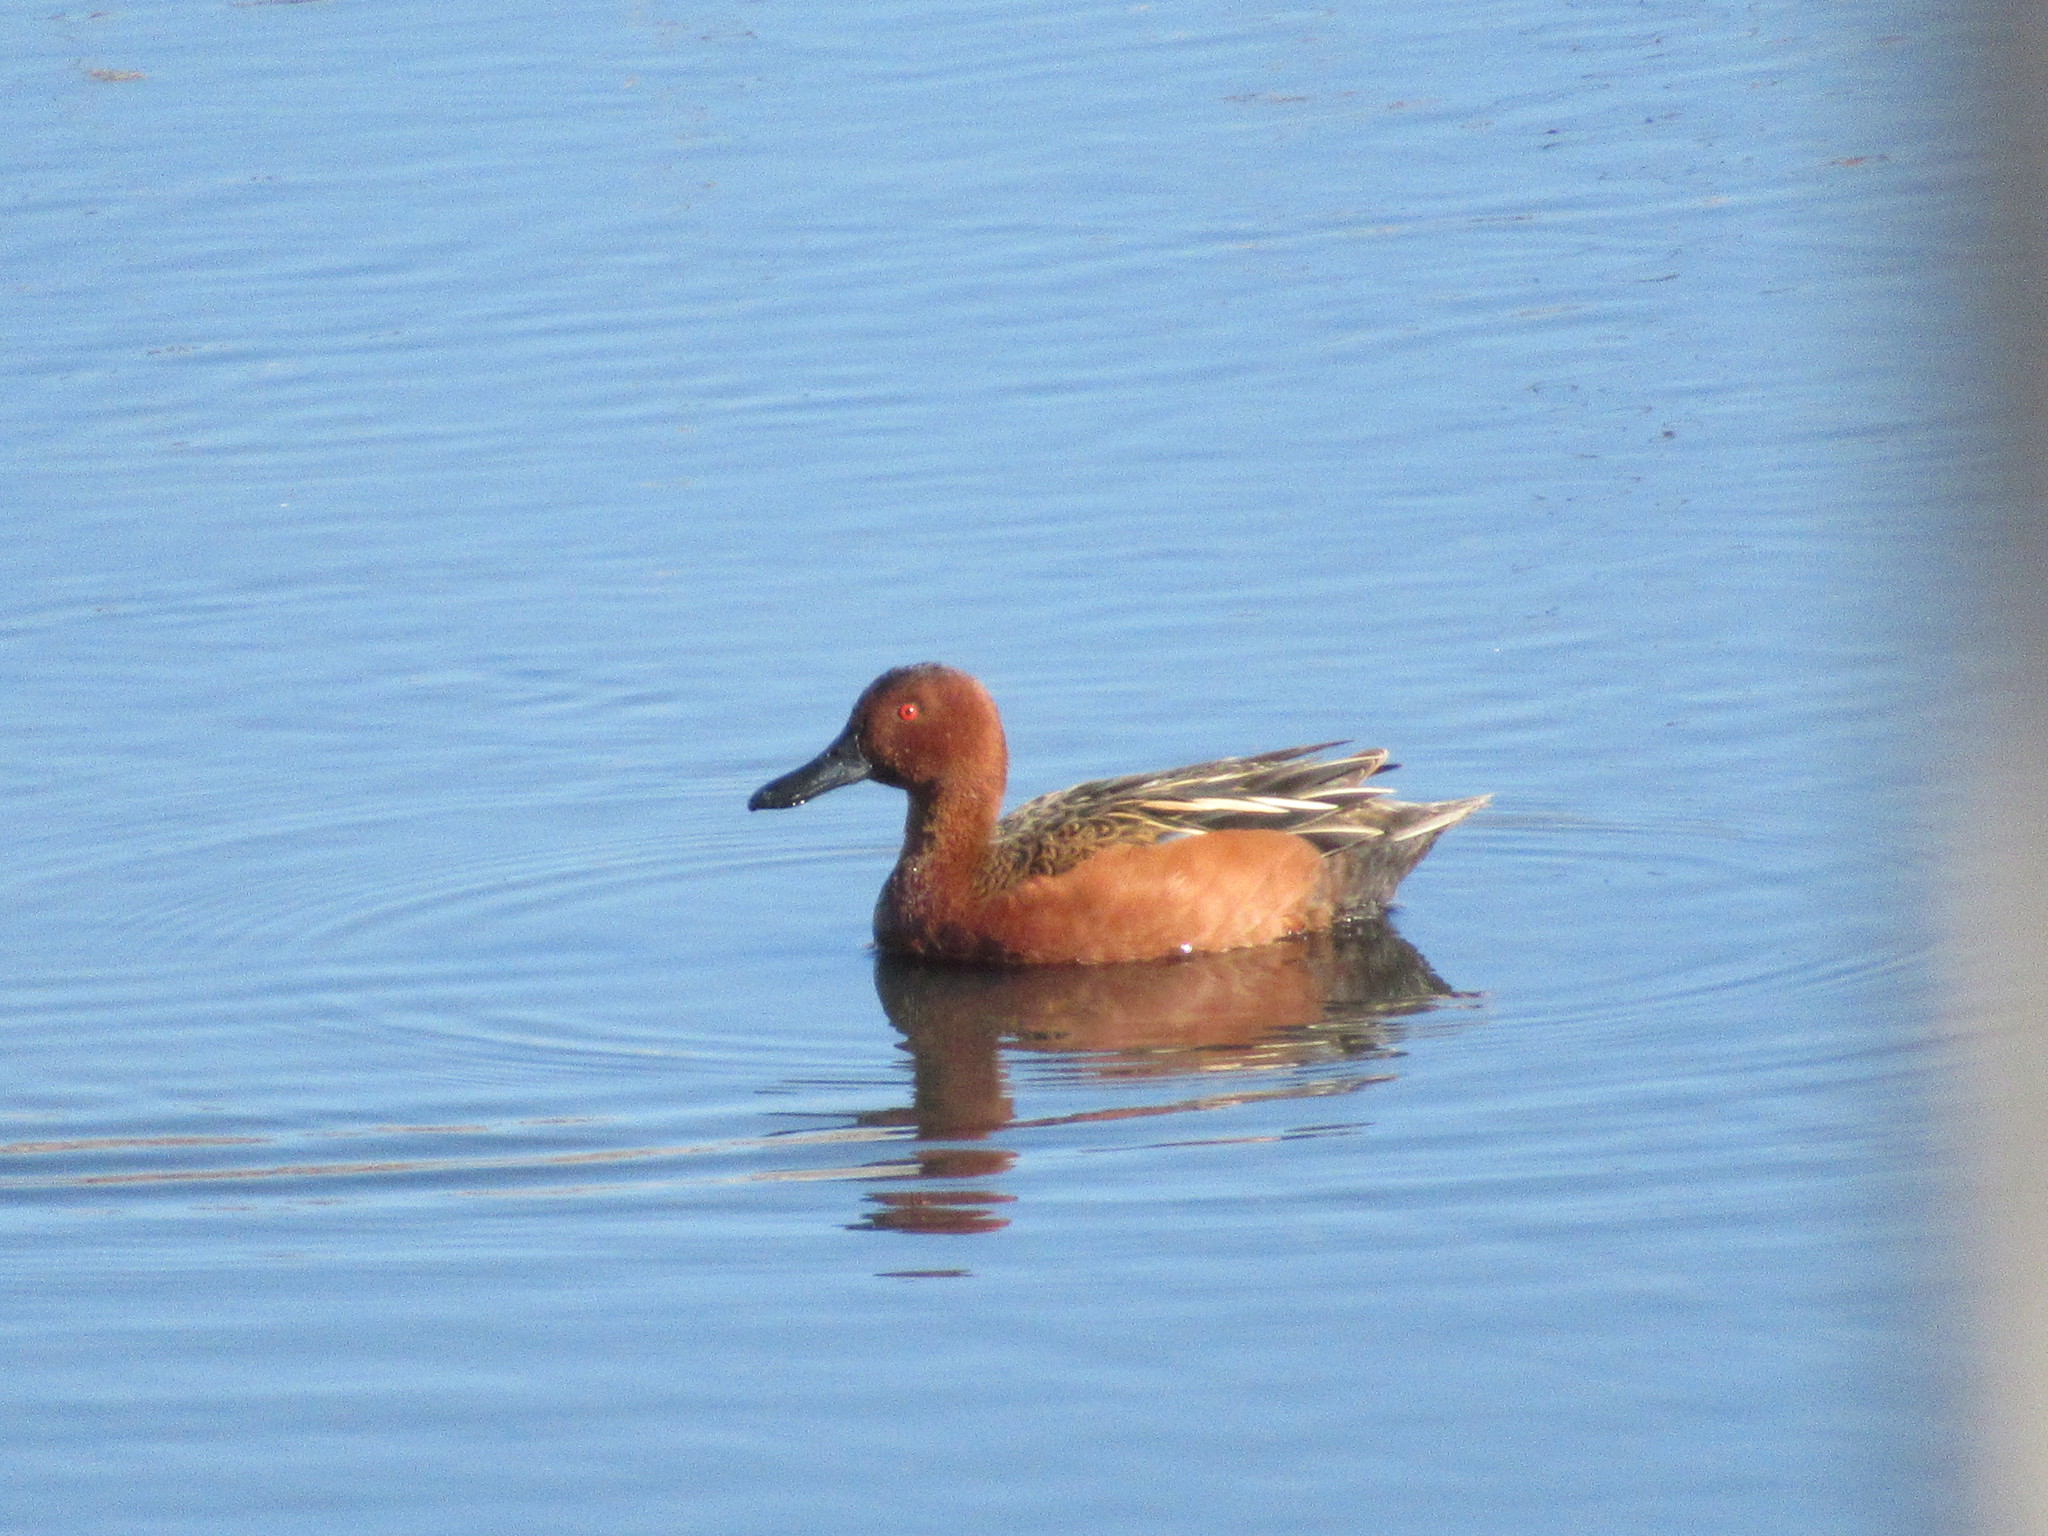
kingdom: Animalia
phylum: Chordata
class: Aves
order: Anseriformes
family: Anatidae
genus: Spatula
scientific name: Spatula cyanoptera
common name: Cinnamon teal
